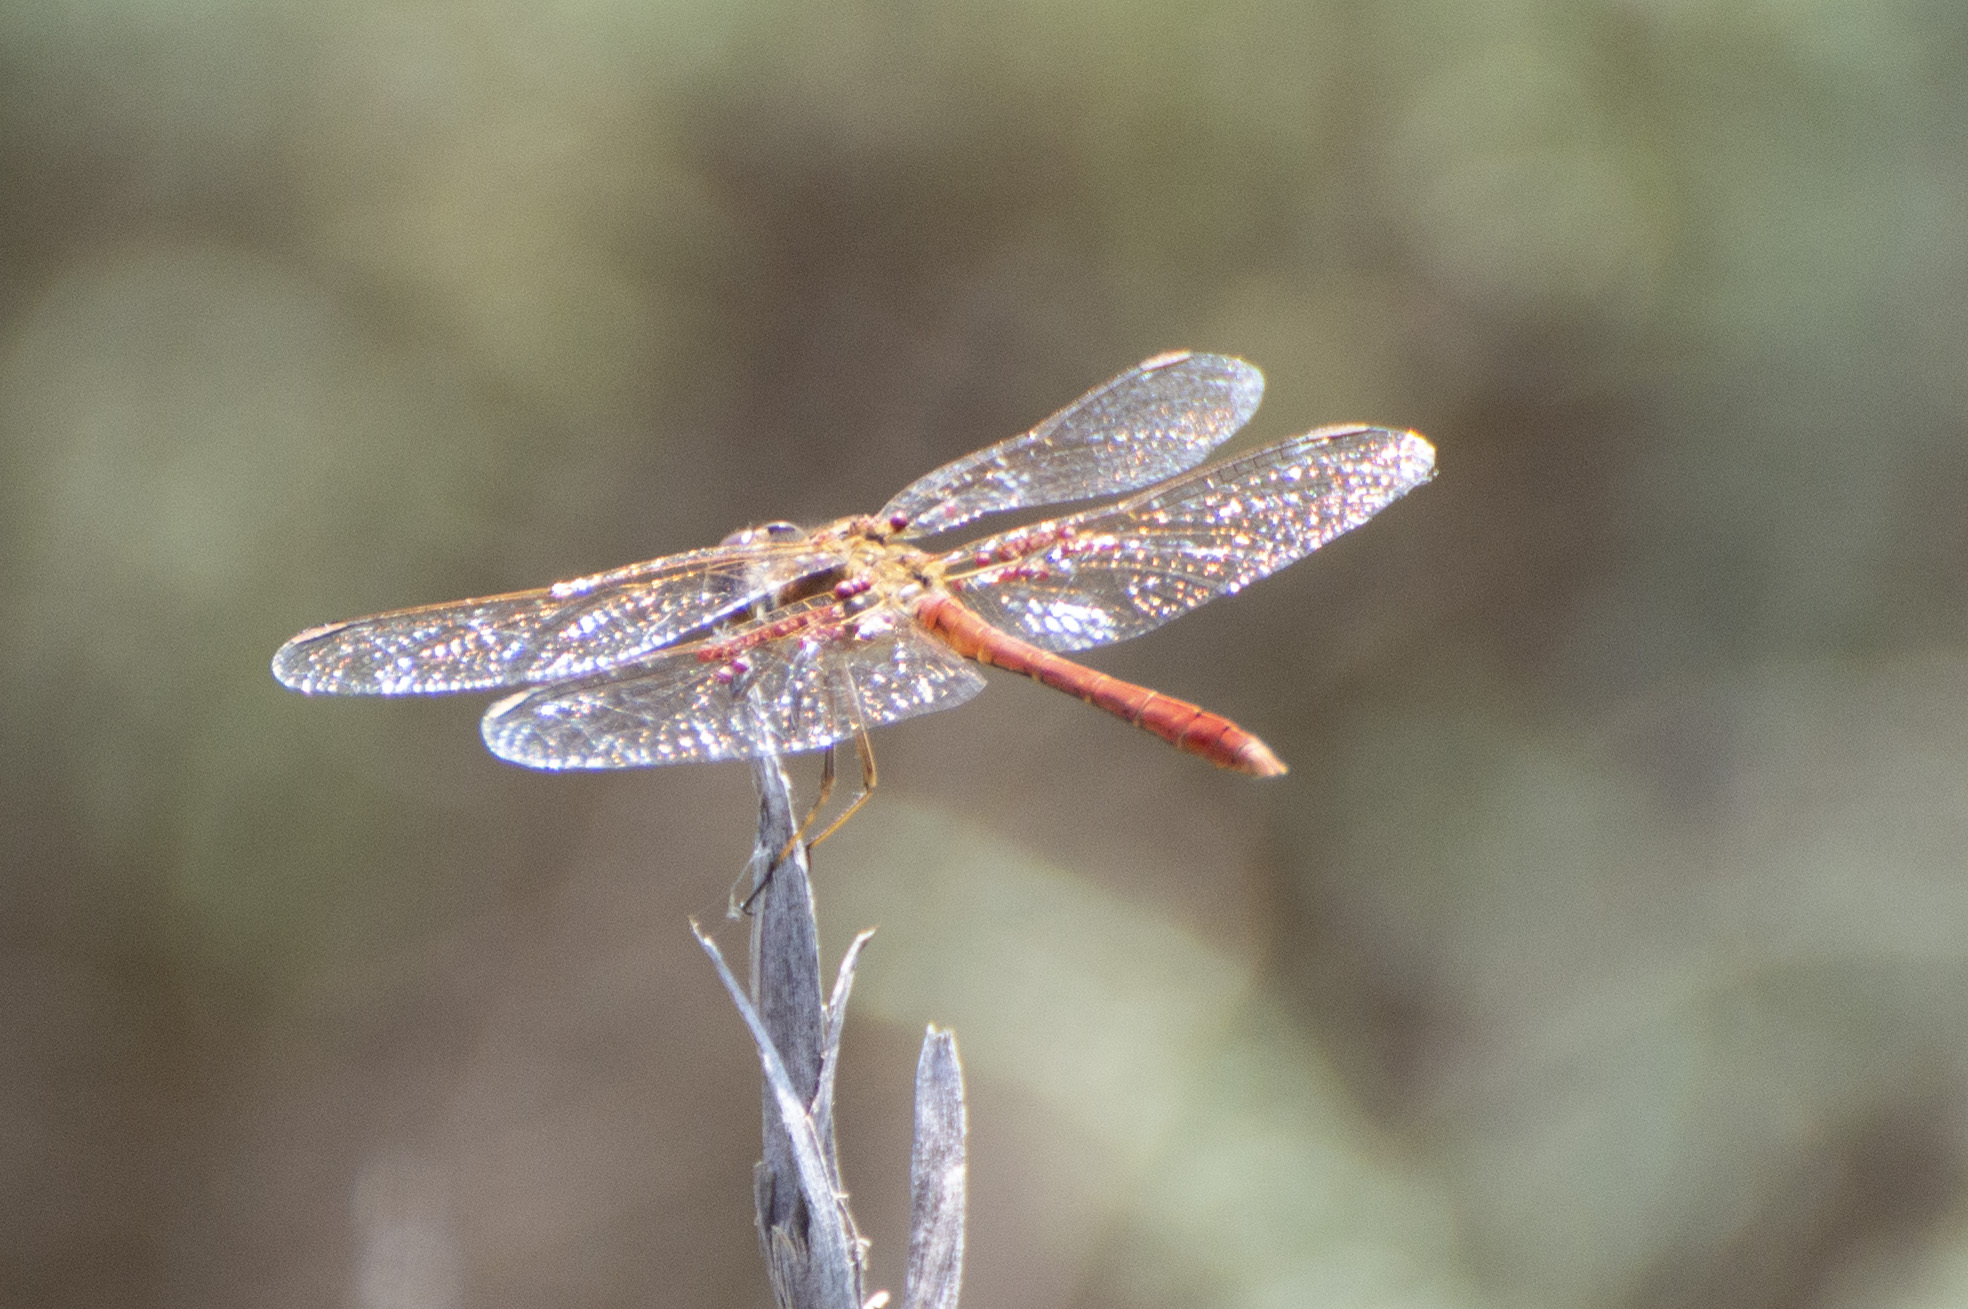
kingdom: Animalia
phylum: Arthropoda
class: Insecta
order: Odonata
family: Libellulidae
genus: Sympetrum
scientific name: Sympetrum meridionale
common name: Southern darter
